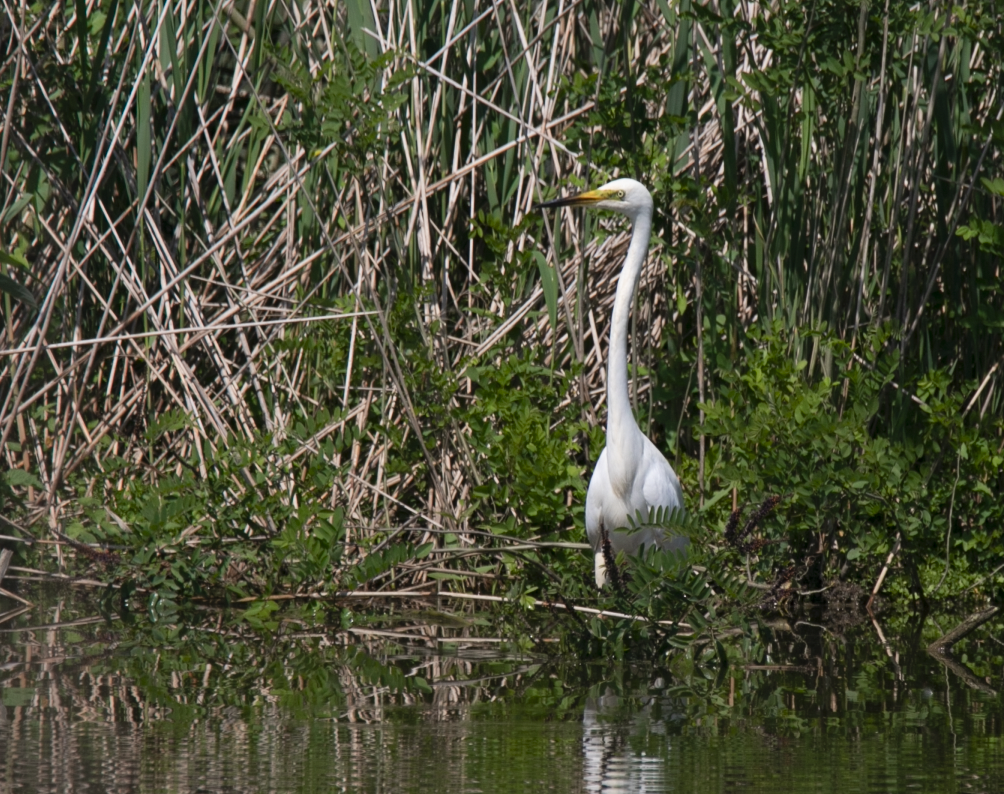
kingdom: Animalia
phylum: Chordata
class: Aves
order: Pelecaniformes
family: Ardeidae
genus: Ardea
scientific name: Ardea alba
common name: Great egret
